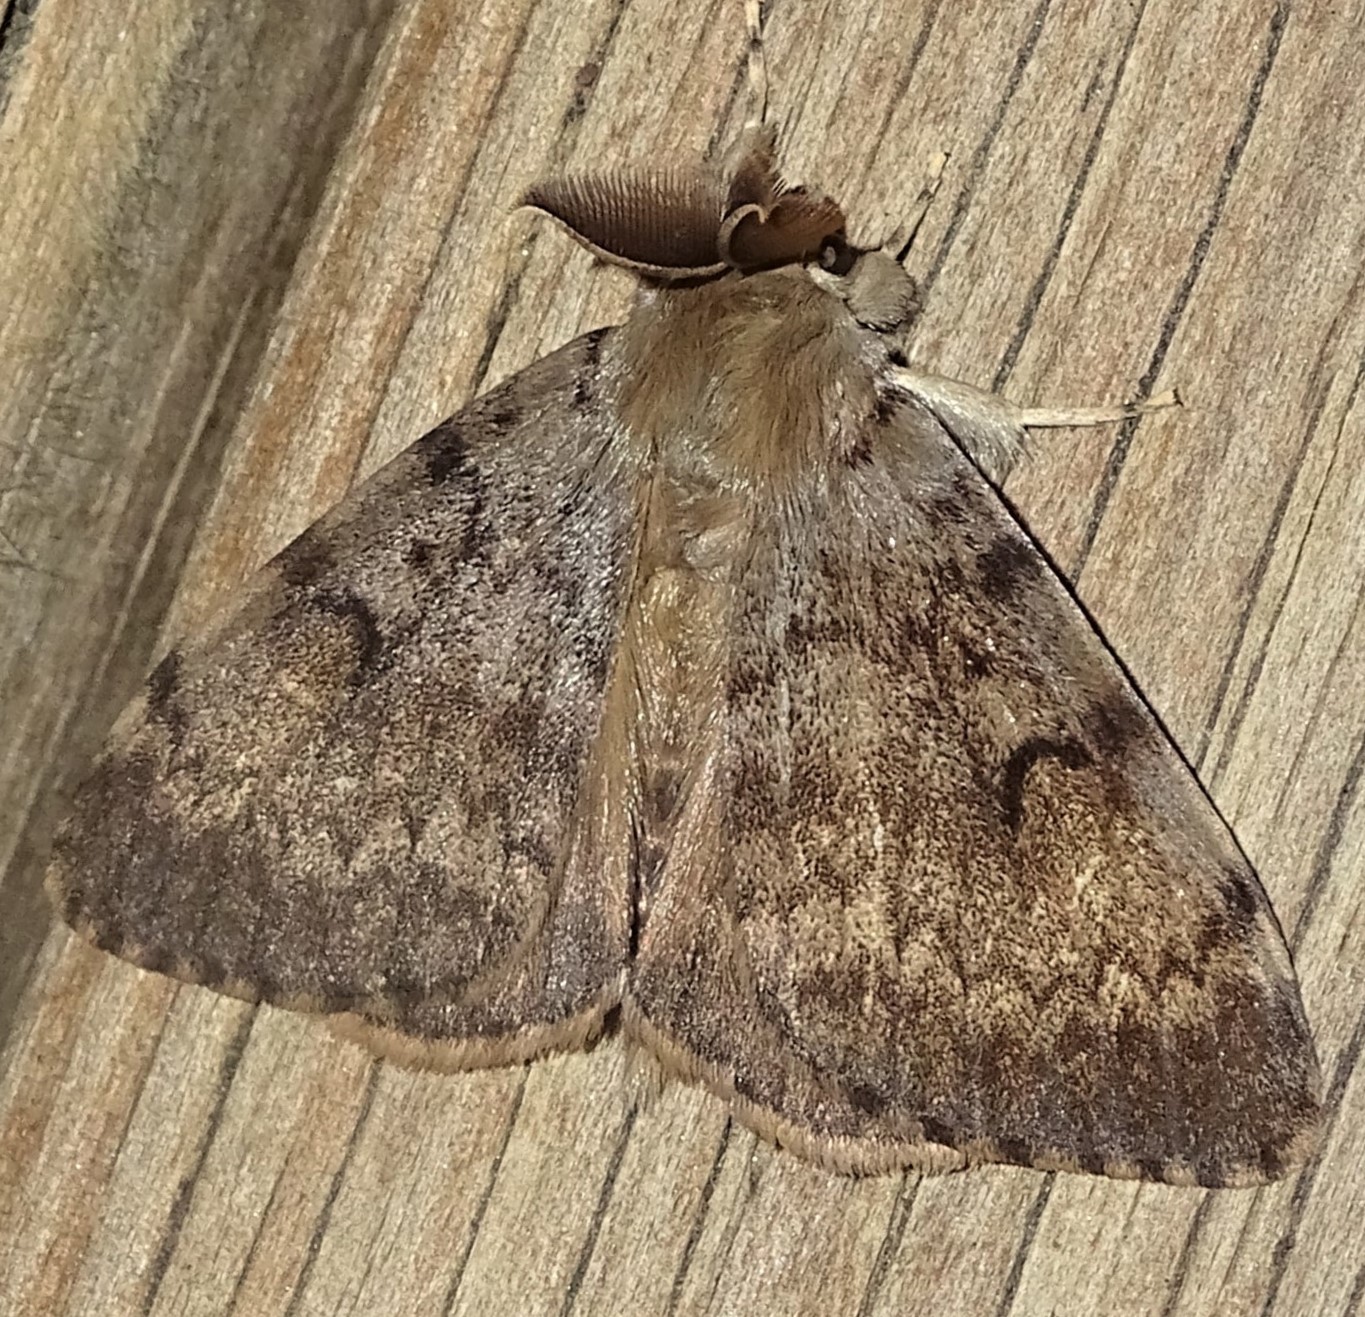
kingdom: Animalia
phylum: Arthropoda
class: Insecta
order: Lepidoptera
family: Erebidae
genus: Lymantria
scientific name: Lymantria dispar
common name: Gypsy moth
